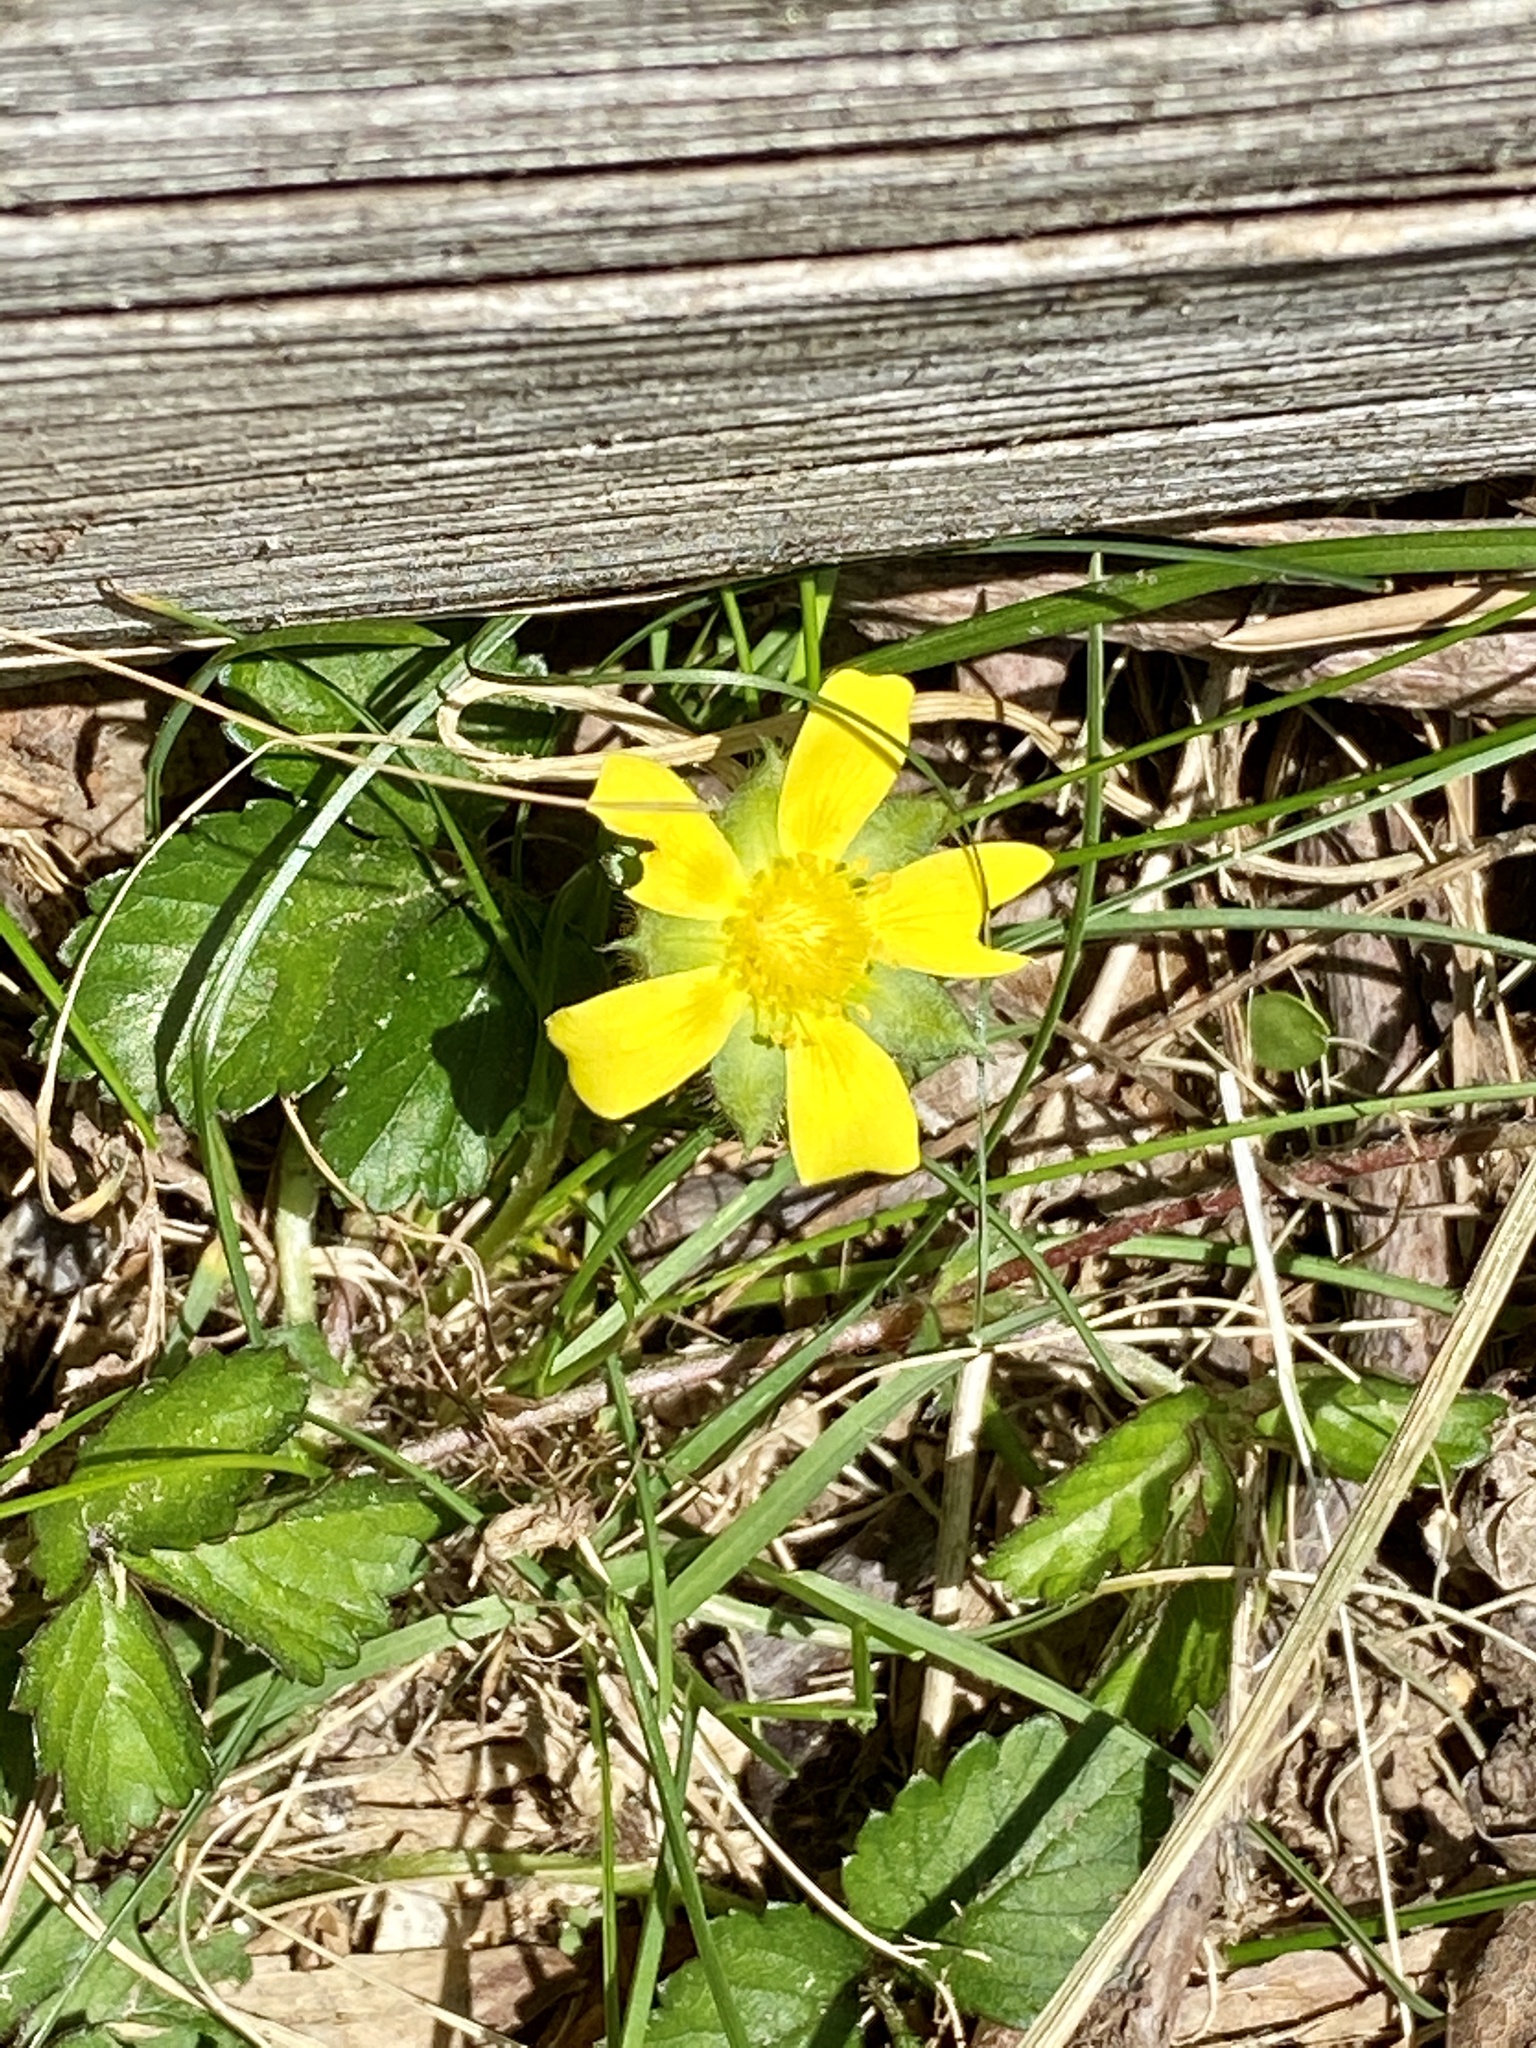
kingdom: Plantae
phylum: Tracheophyta
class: Magnoliopsida
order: Rosales
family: Rosaceae
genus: Potentilla
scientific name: Potentilla indica
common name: Yellow-flowered strawberry
